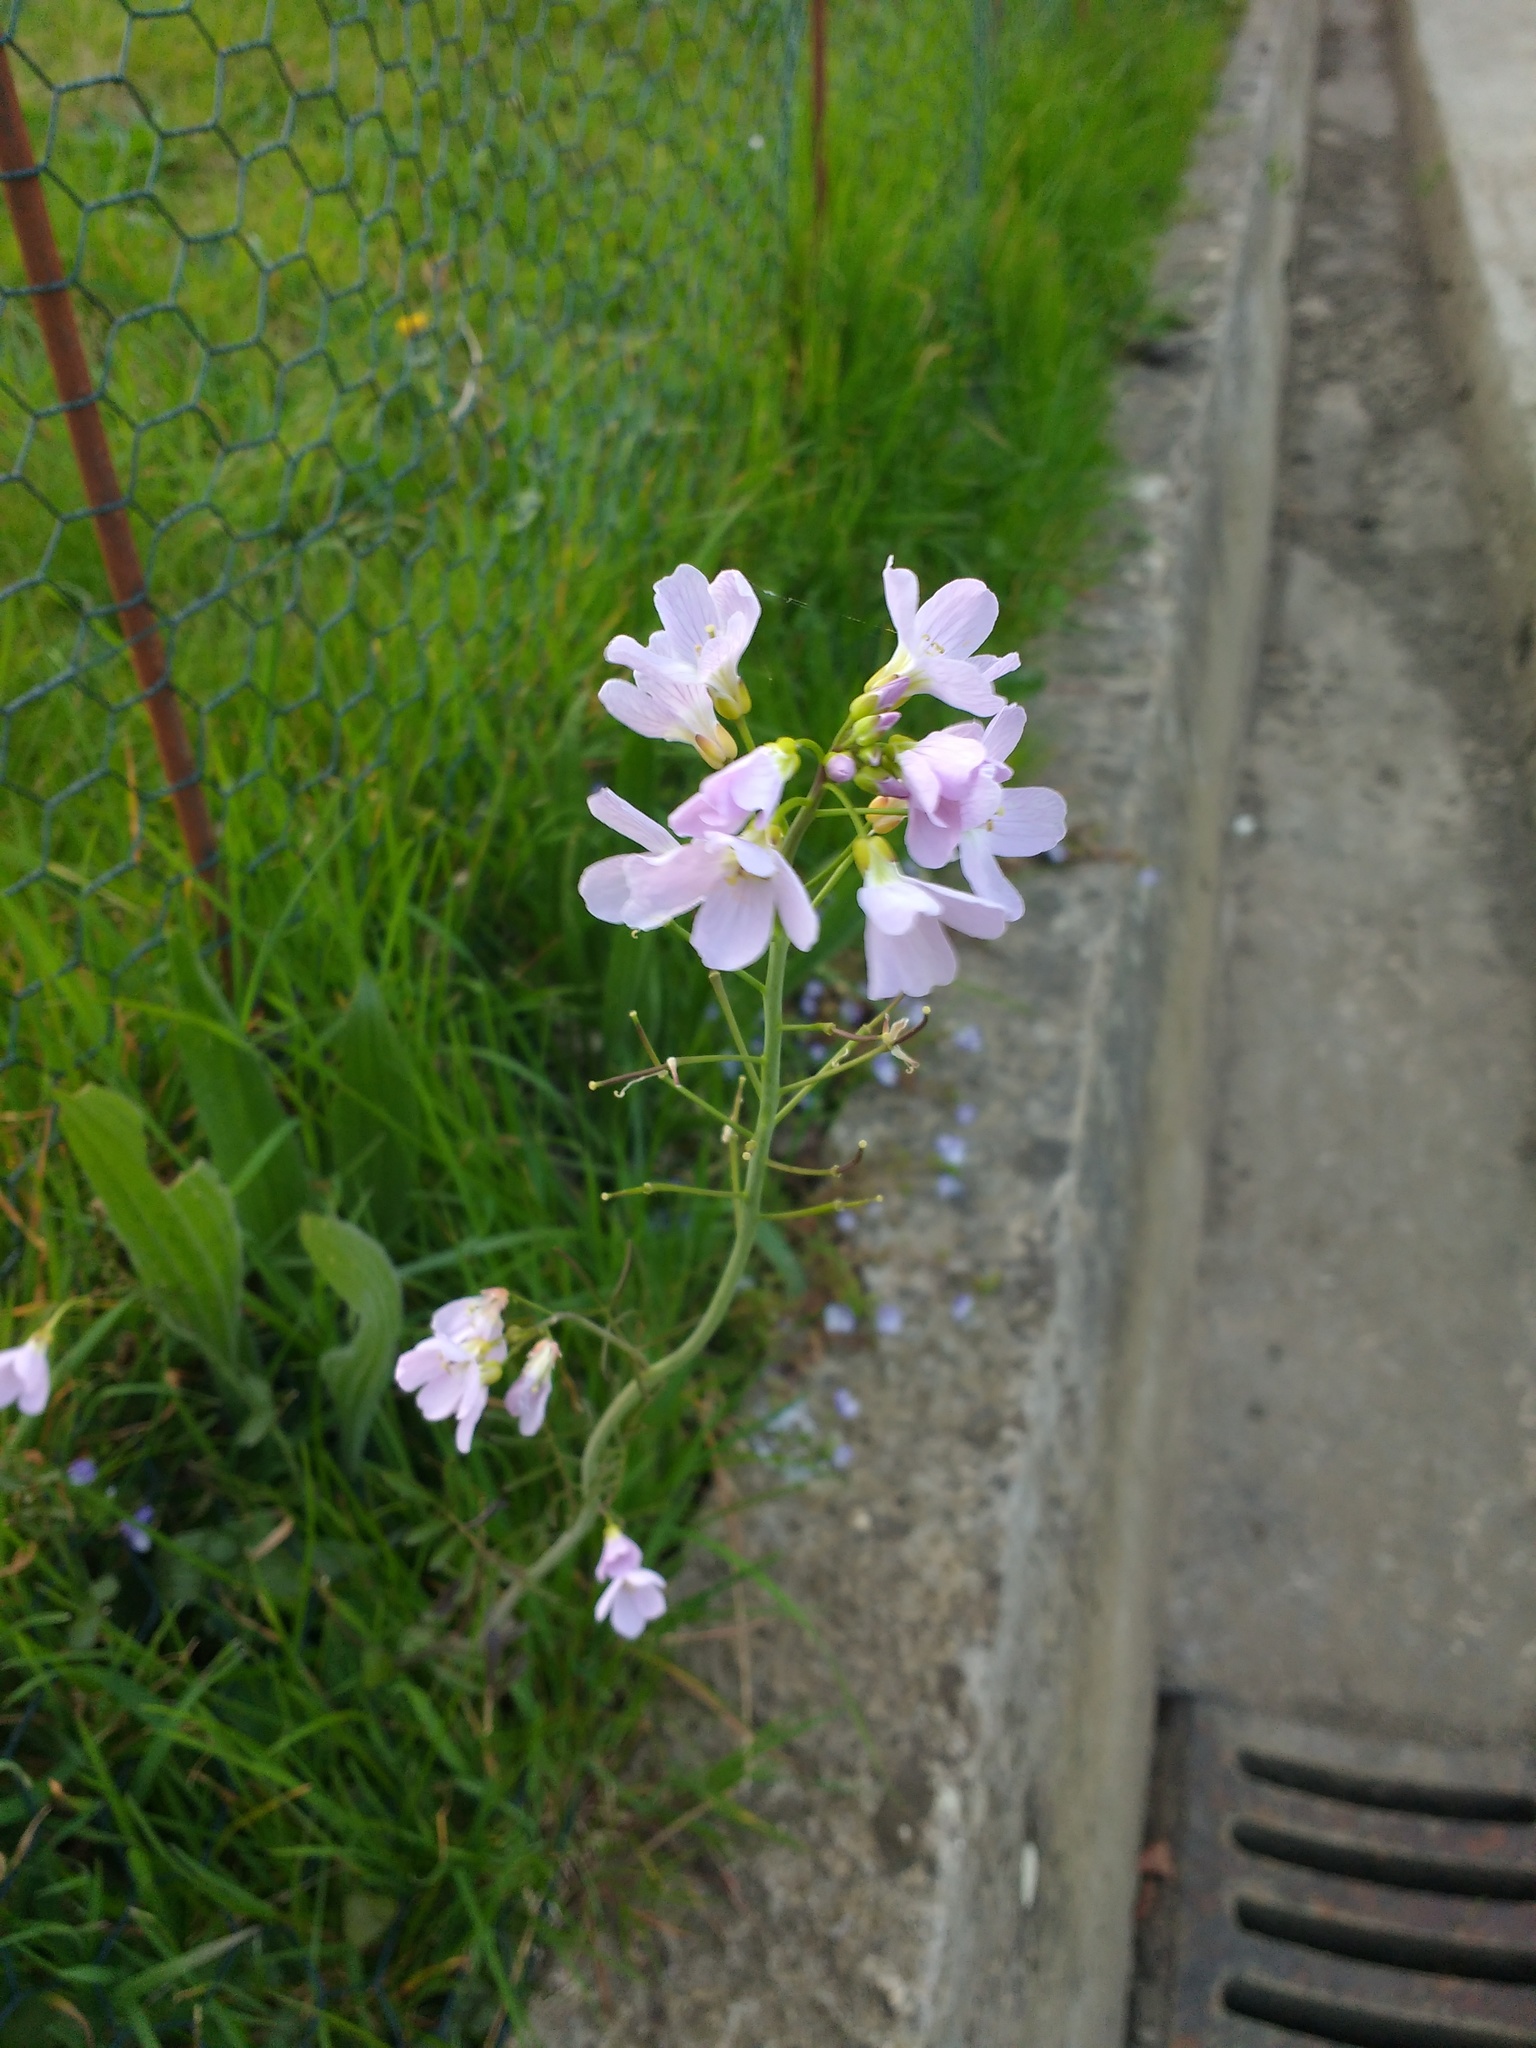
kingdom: Plantae
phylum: Tracheophyta
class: Magnoliopsida
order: Brassicales
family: Brassicaceae
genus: Cardamine
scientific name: Cardamine pratensis
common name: Cuckoo flower
